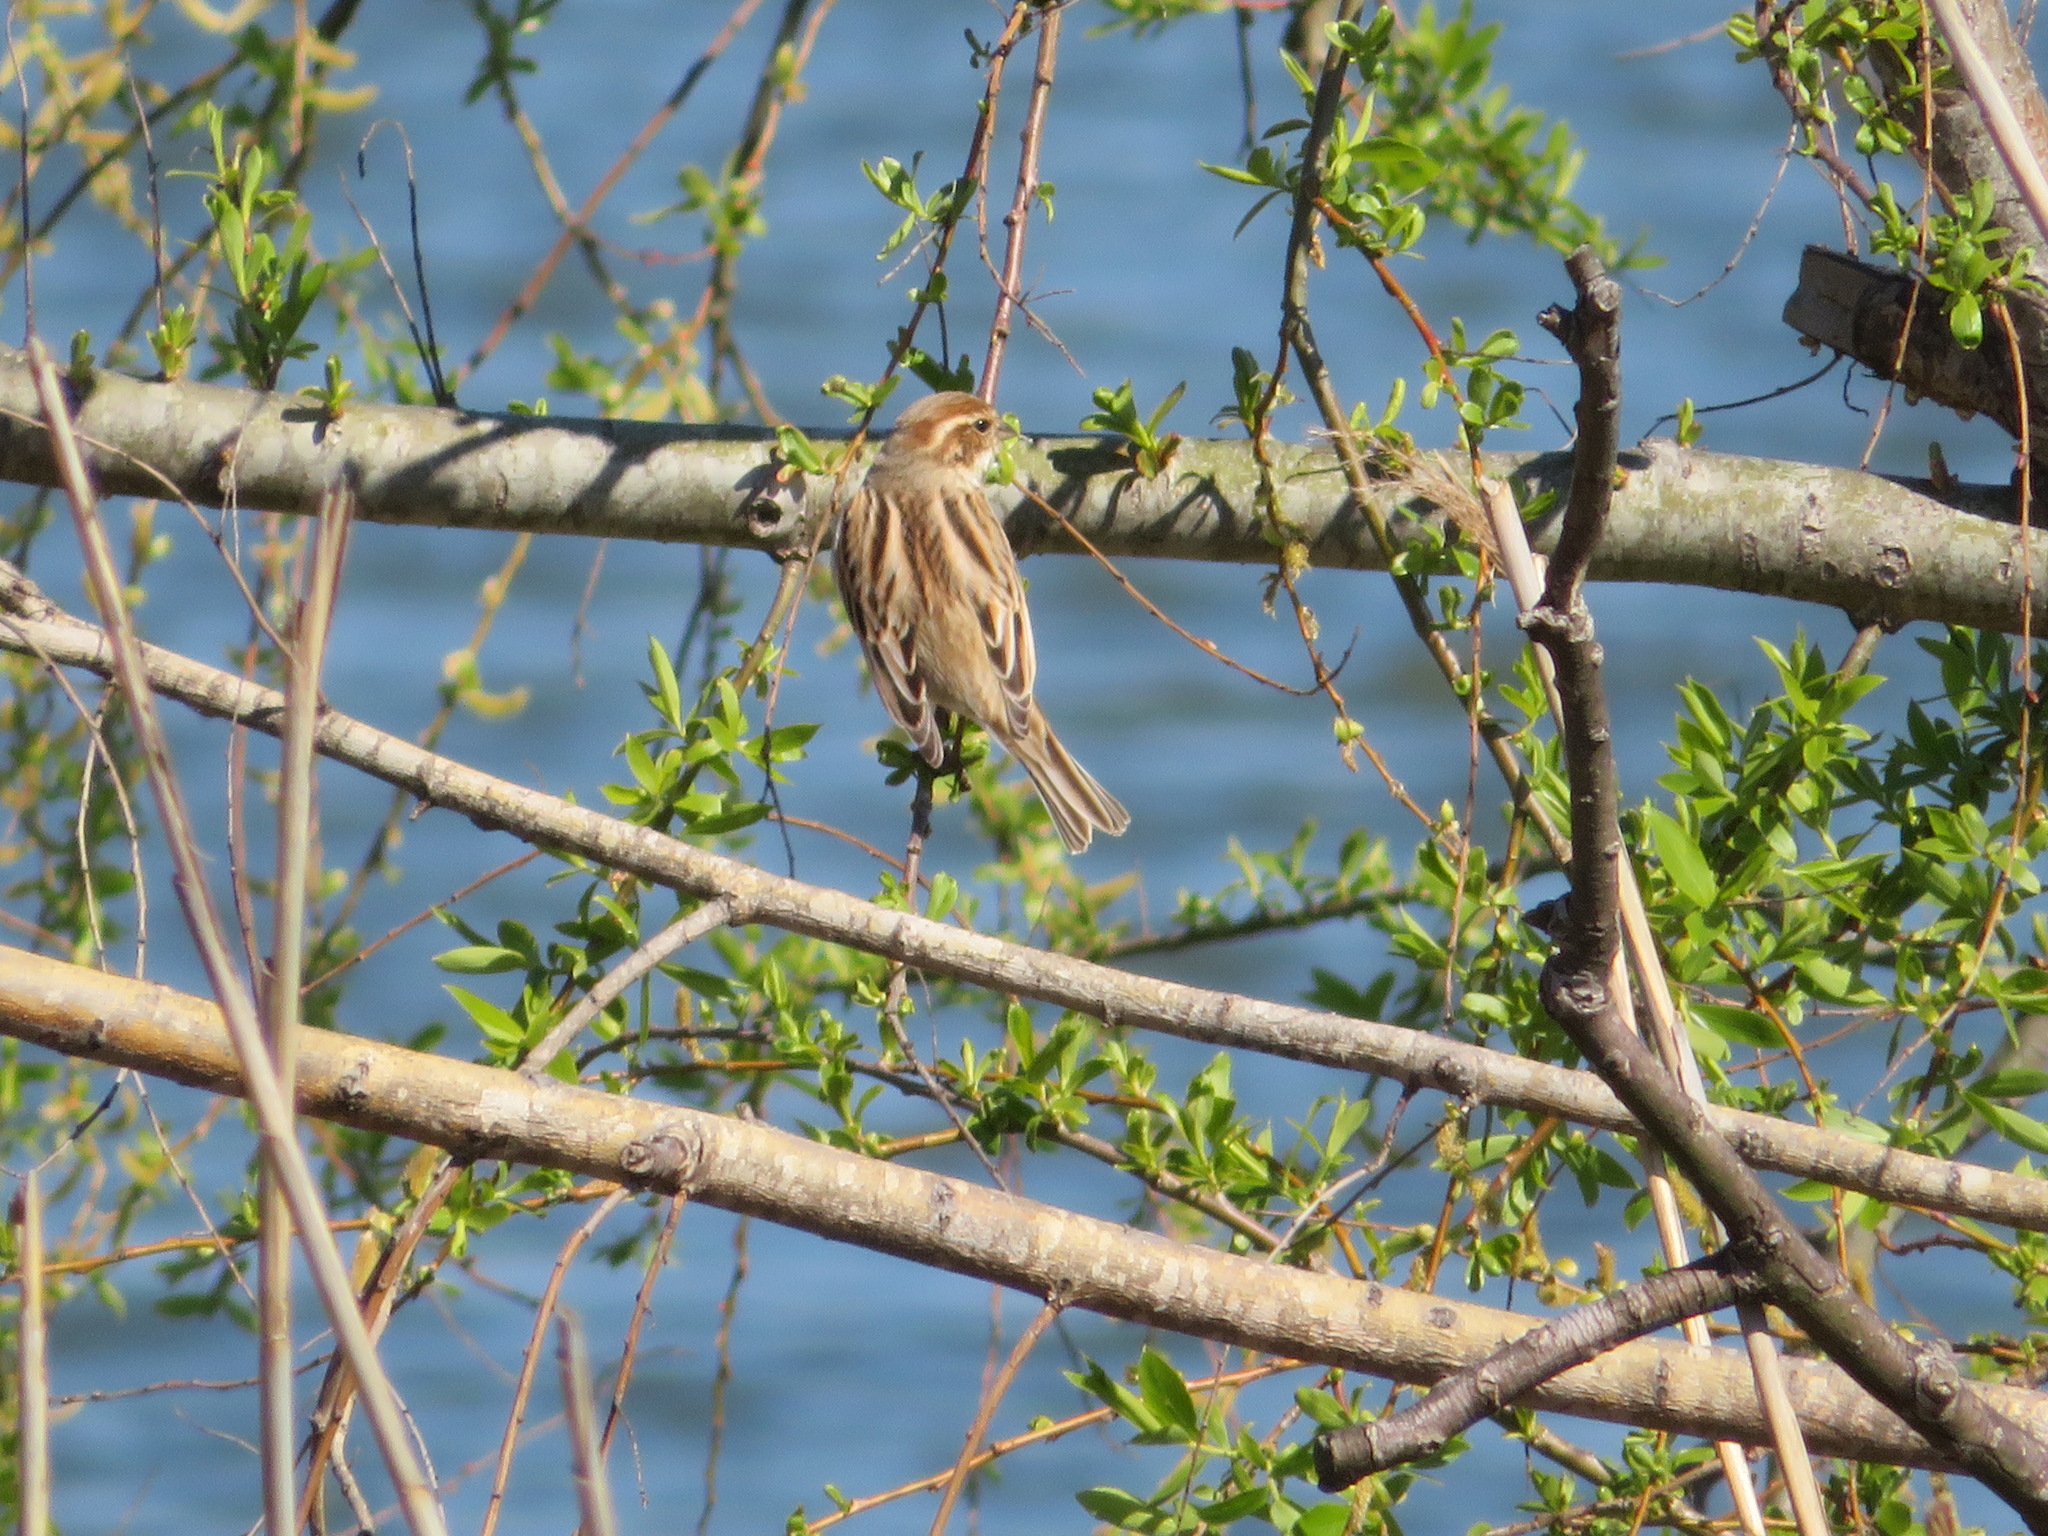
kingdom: Animalia
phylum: Chordata
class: Aves
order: Passeriformes
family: Emberizidae
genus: Emberiza
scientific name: Emberiza schoeniclus
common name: Reed bunting
